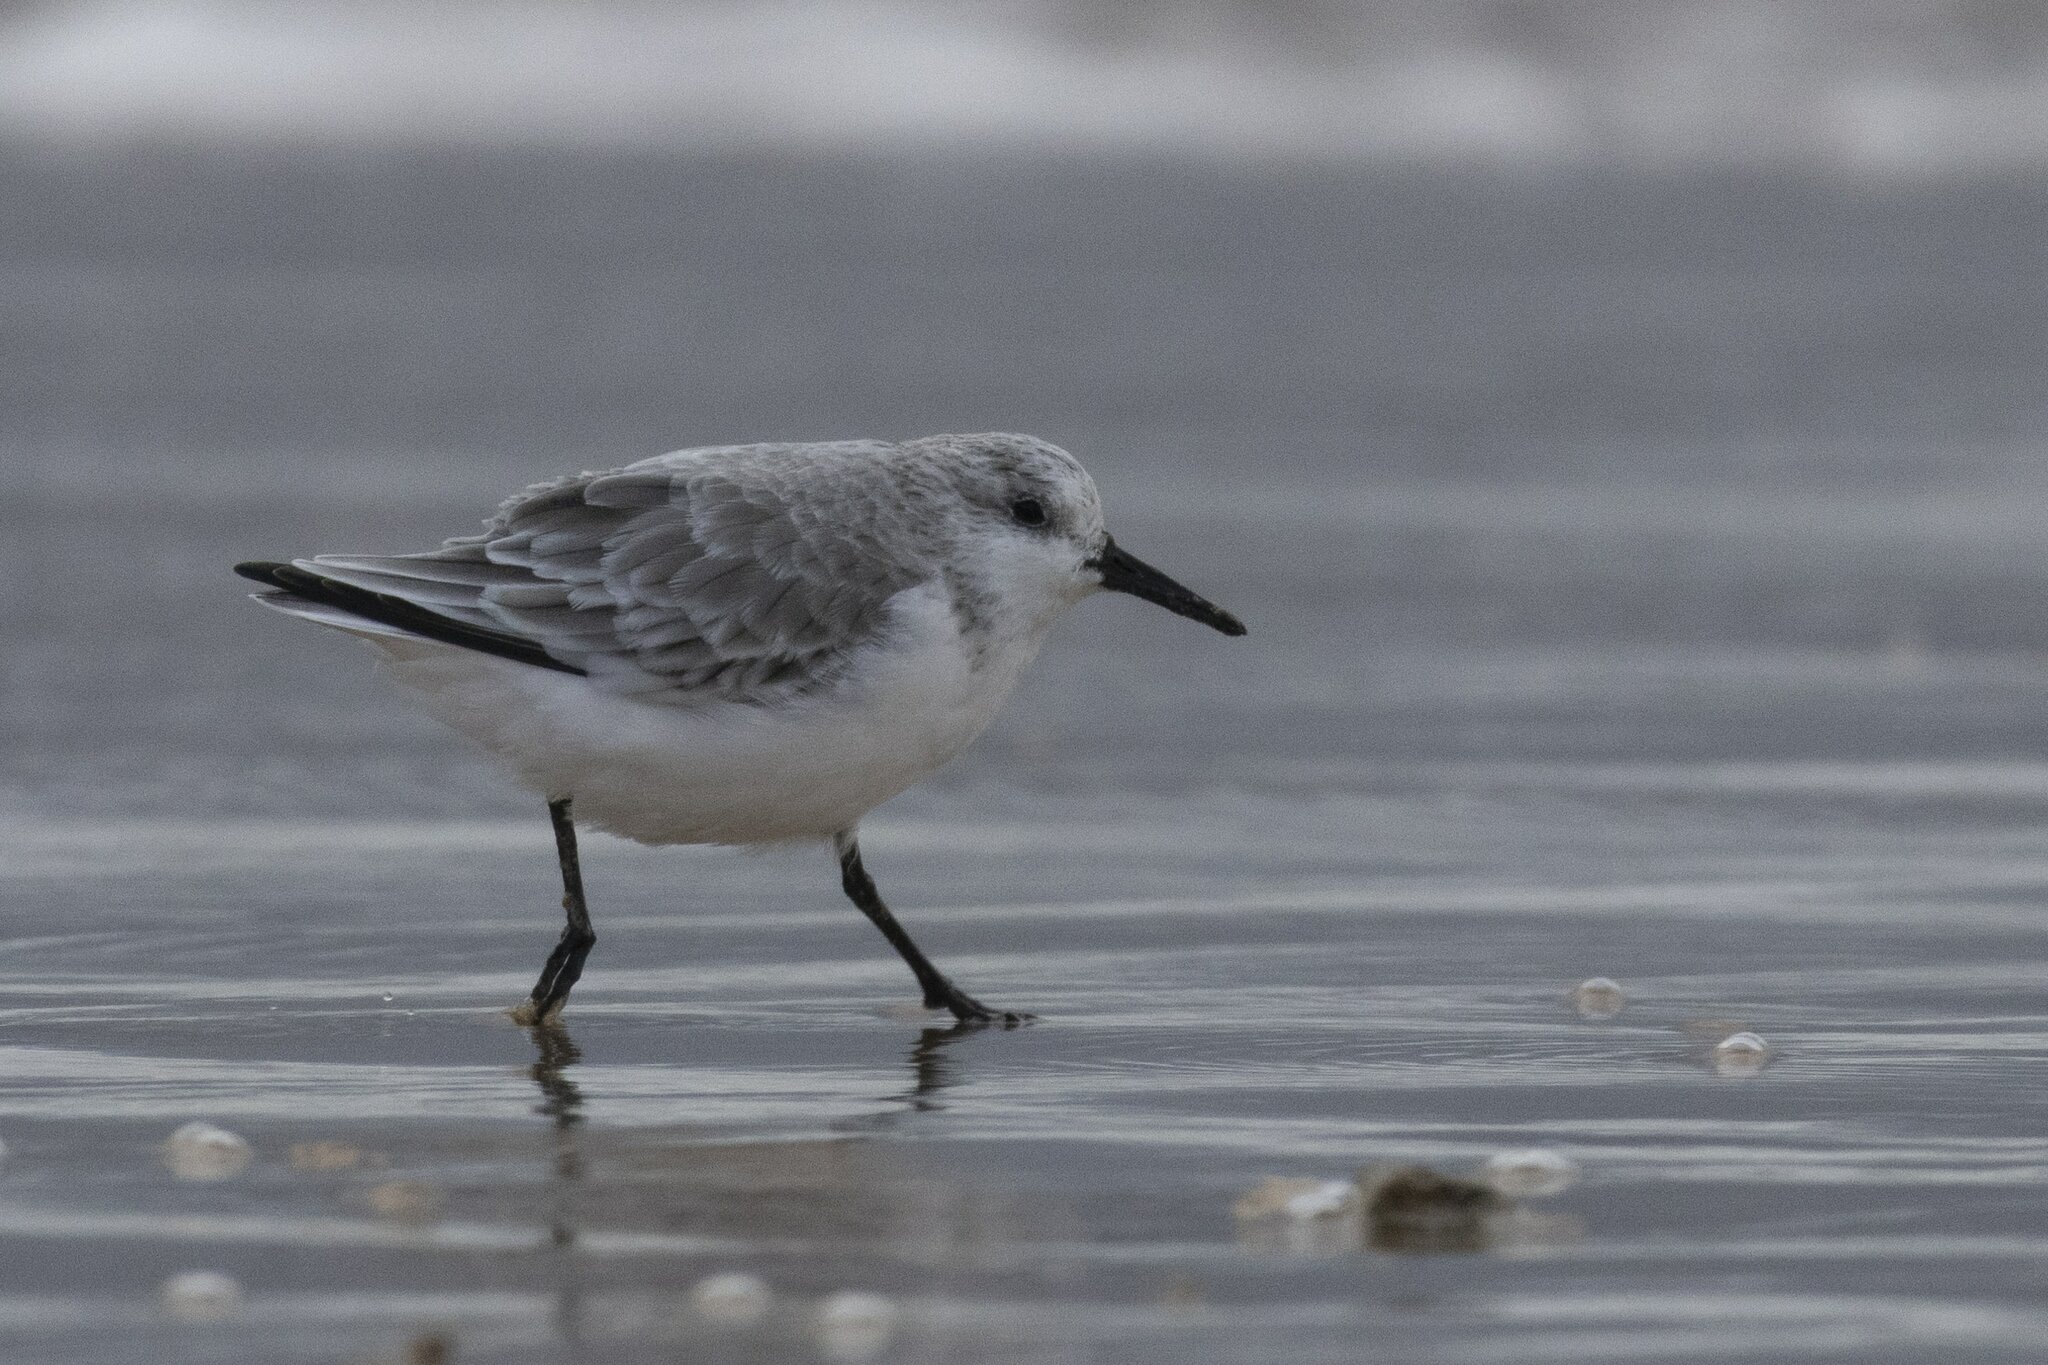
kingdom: Animalia
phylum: Chordata
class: Aves
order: Charadriiformes
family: Scolopacidae
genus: Calidris
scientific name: Calidris alba
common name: Sanderling
